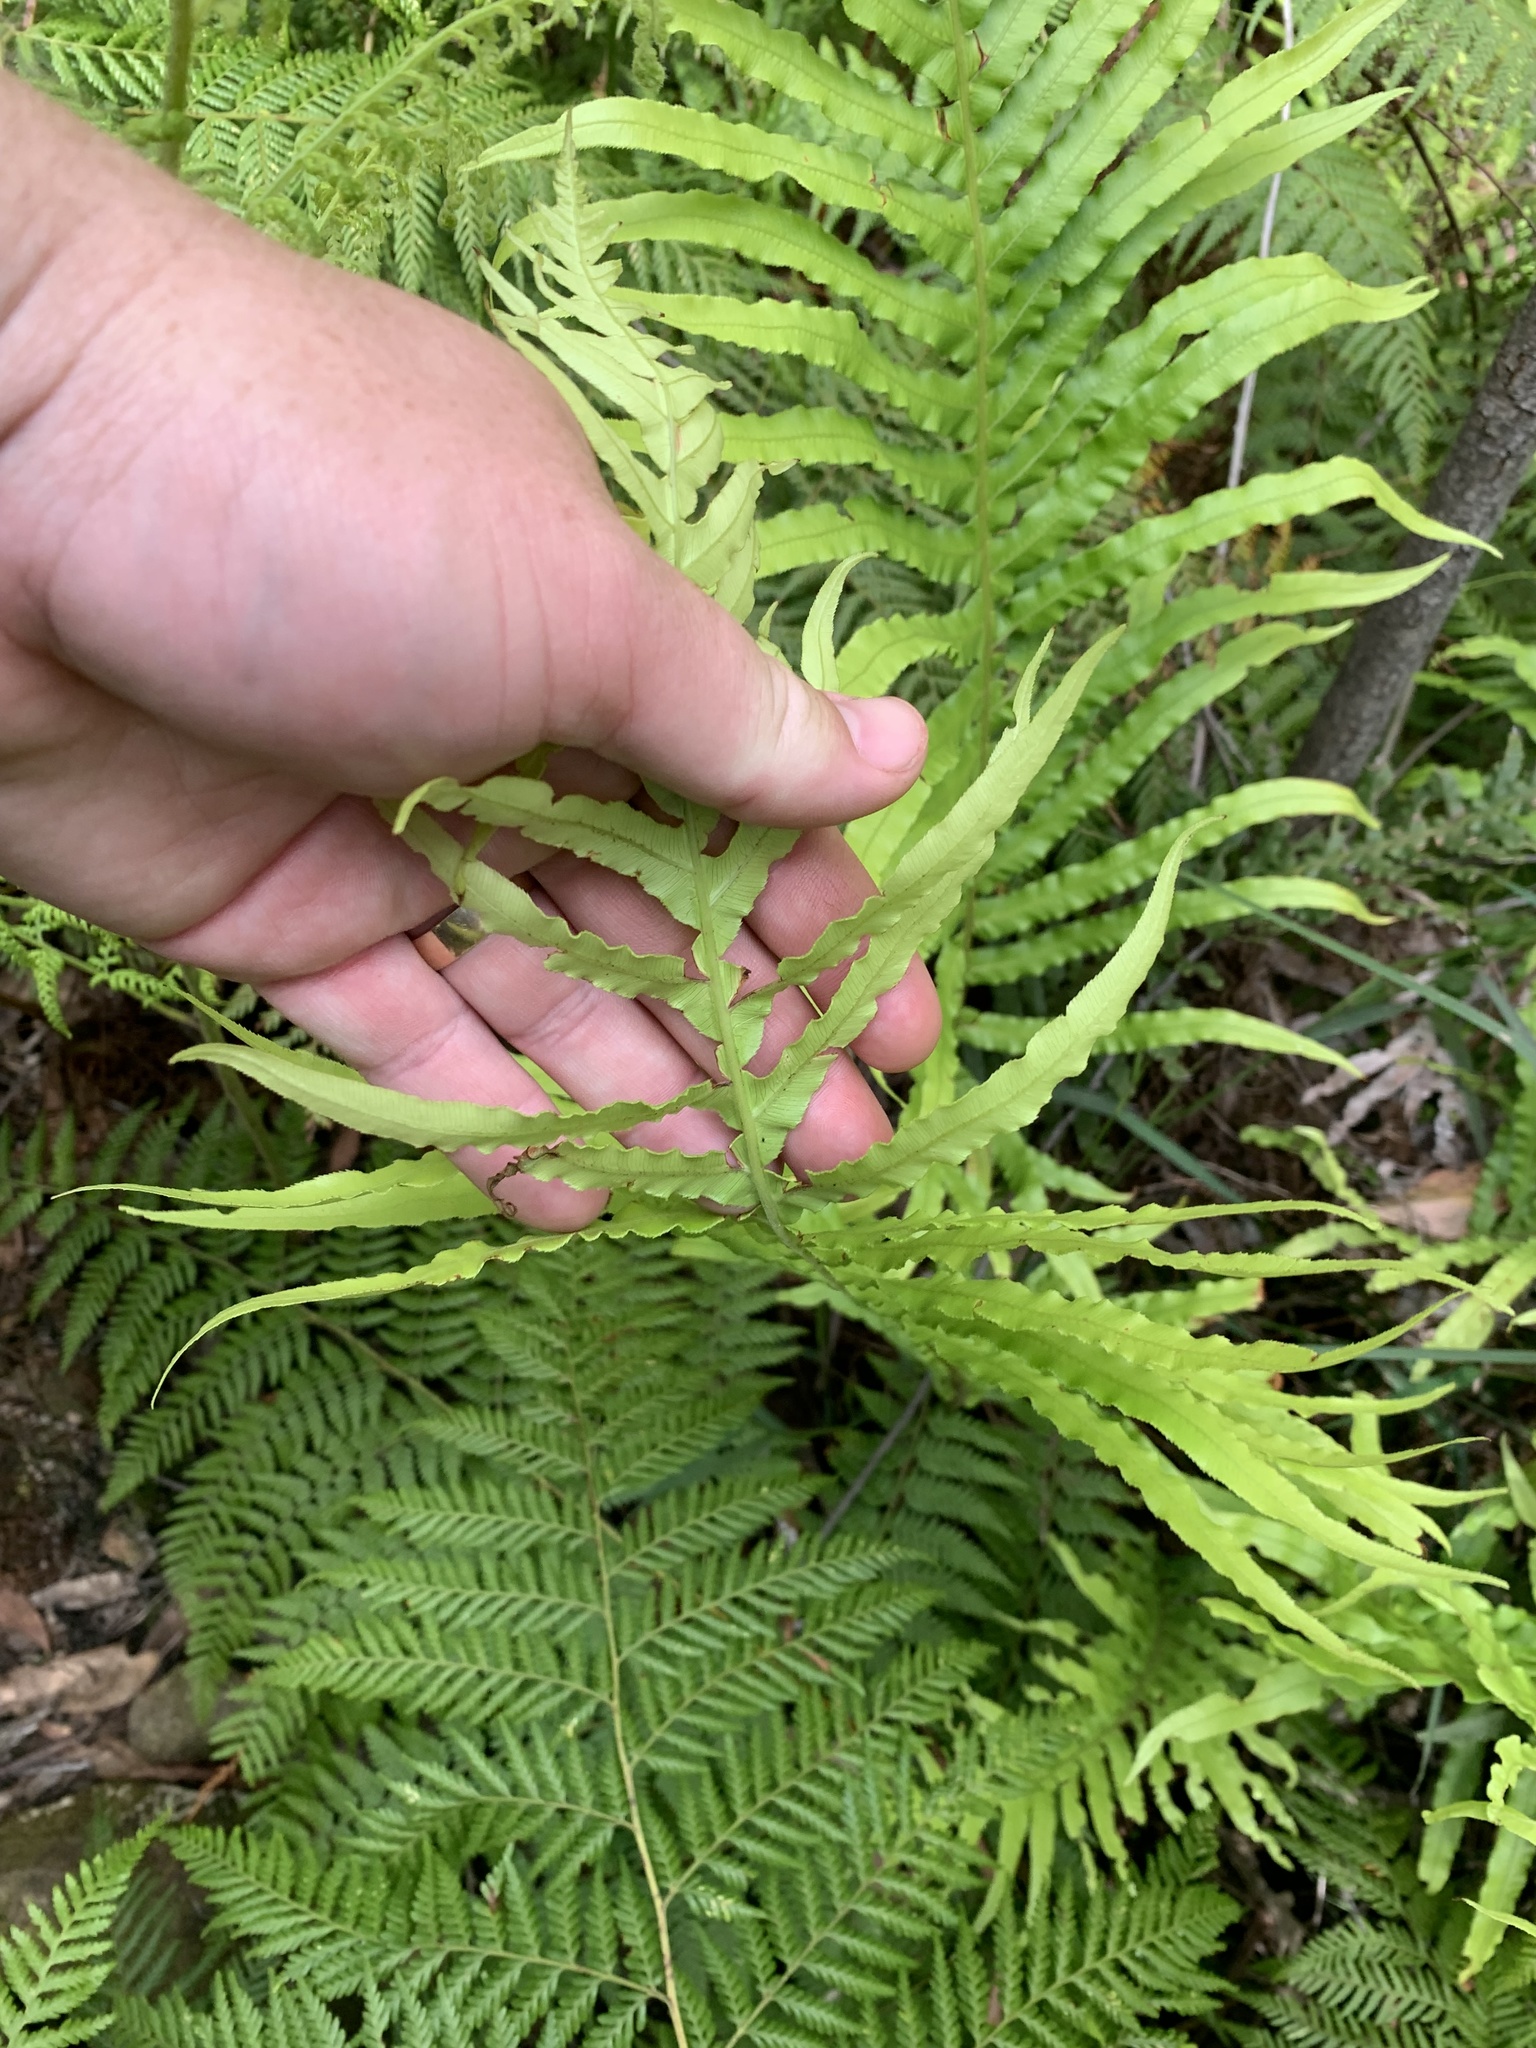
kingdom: Plantae
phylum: Tracheophyta
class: Polypodiopsida
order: Polypodiales
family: Blechnaceae
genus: Oceaniopteris
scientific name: Oceaniopteris cartilaginea
